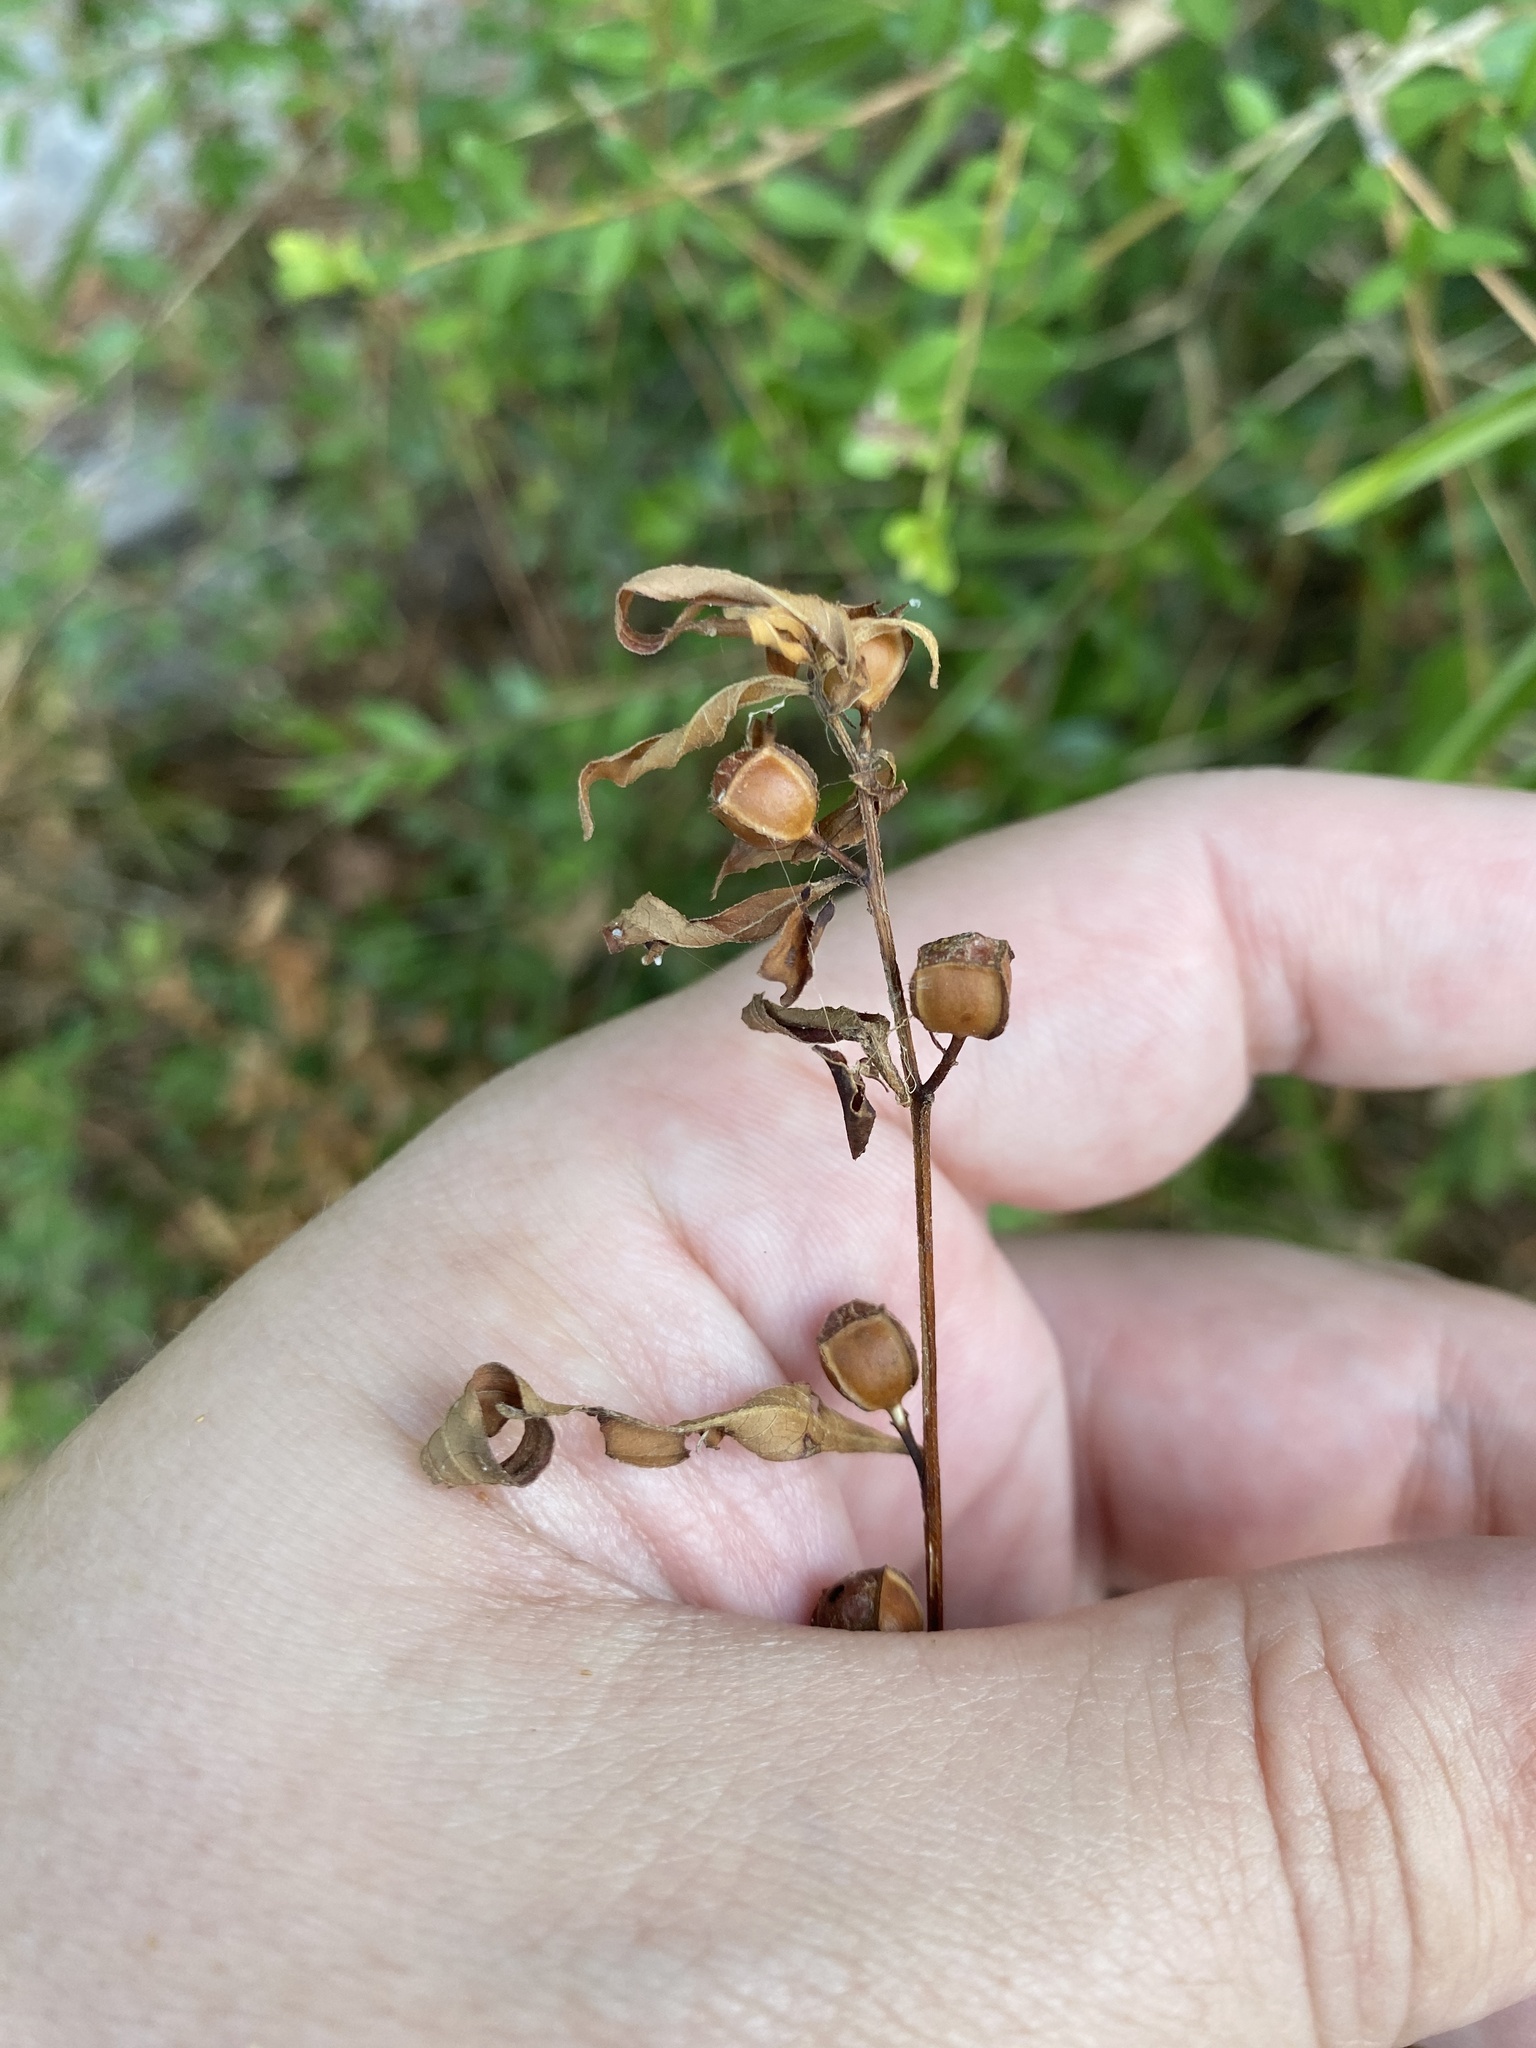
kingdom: Plantae
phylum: Tracheophyta
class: Magnoliopsida
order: Myrtales
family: Onagraceae
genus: Ludwigia
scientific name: Ludwigia alternifolia
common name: Rattlebox
